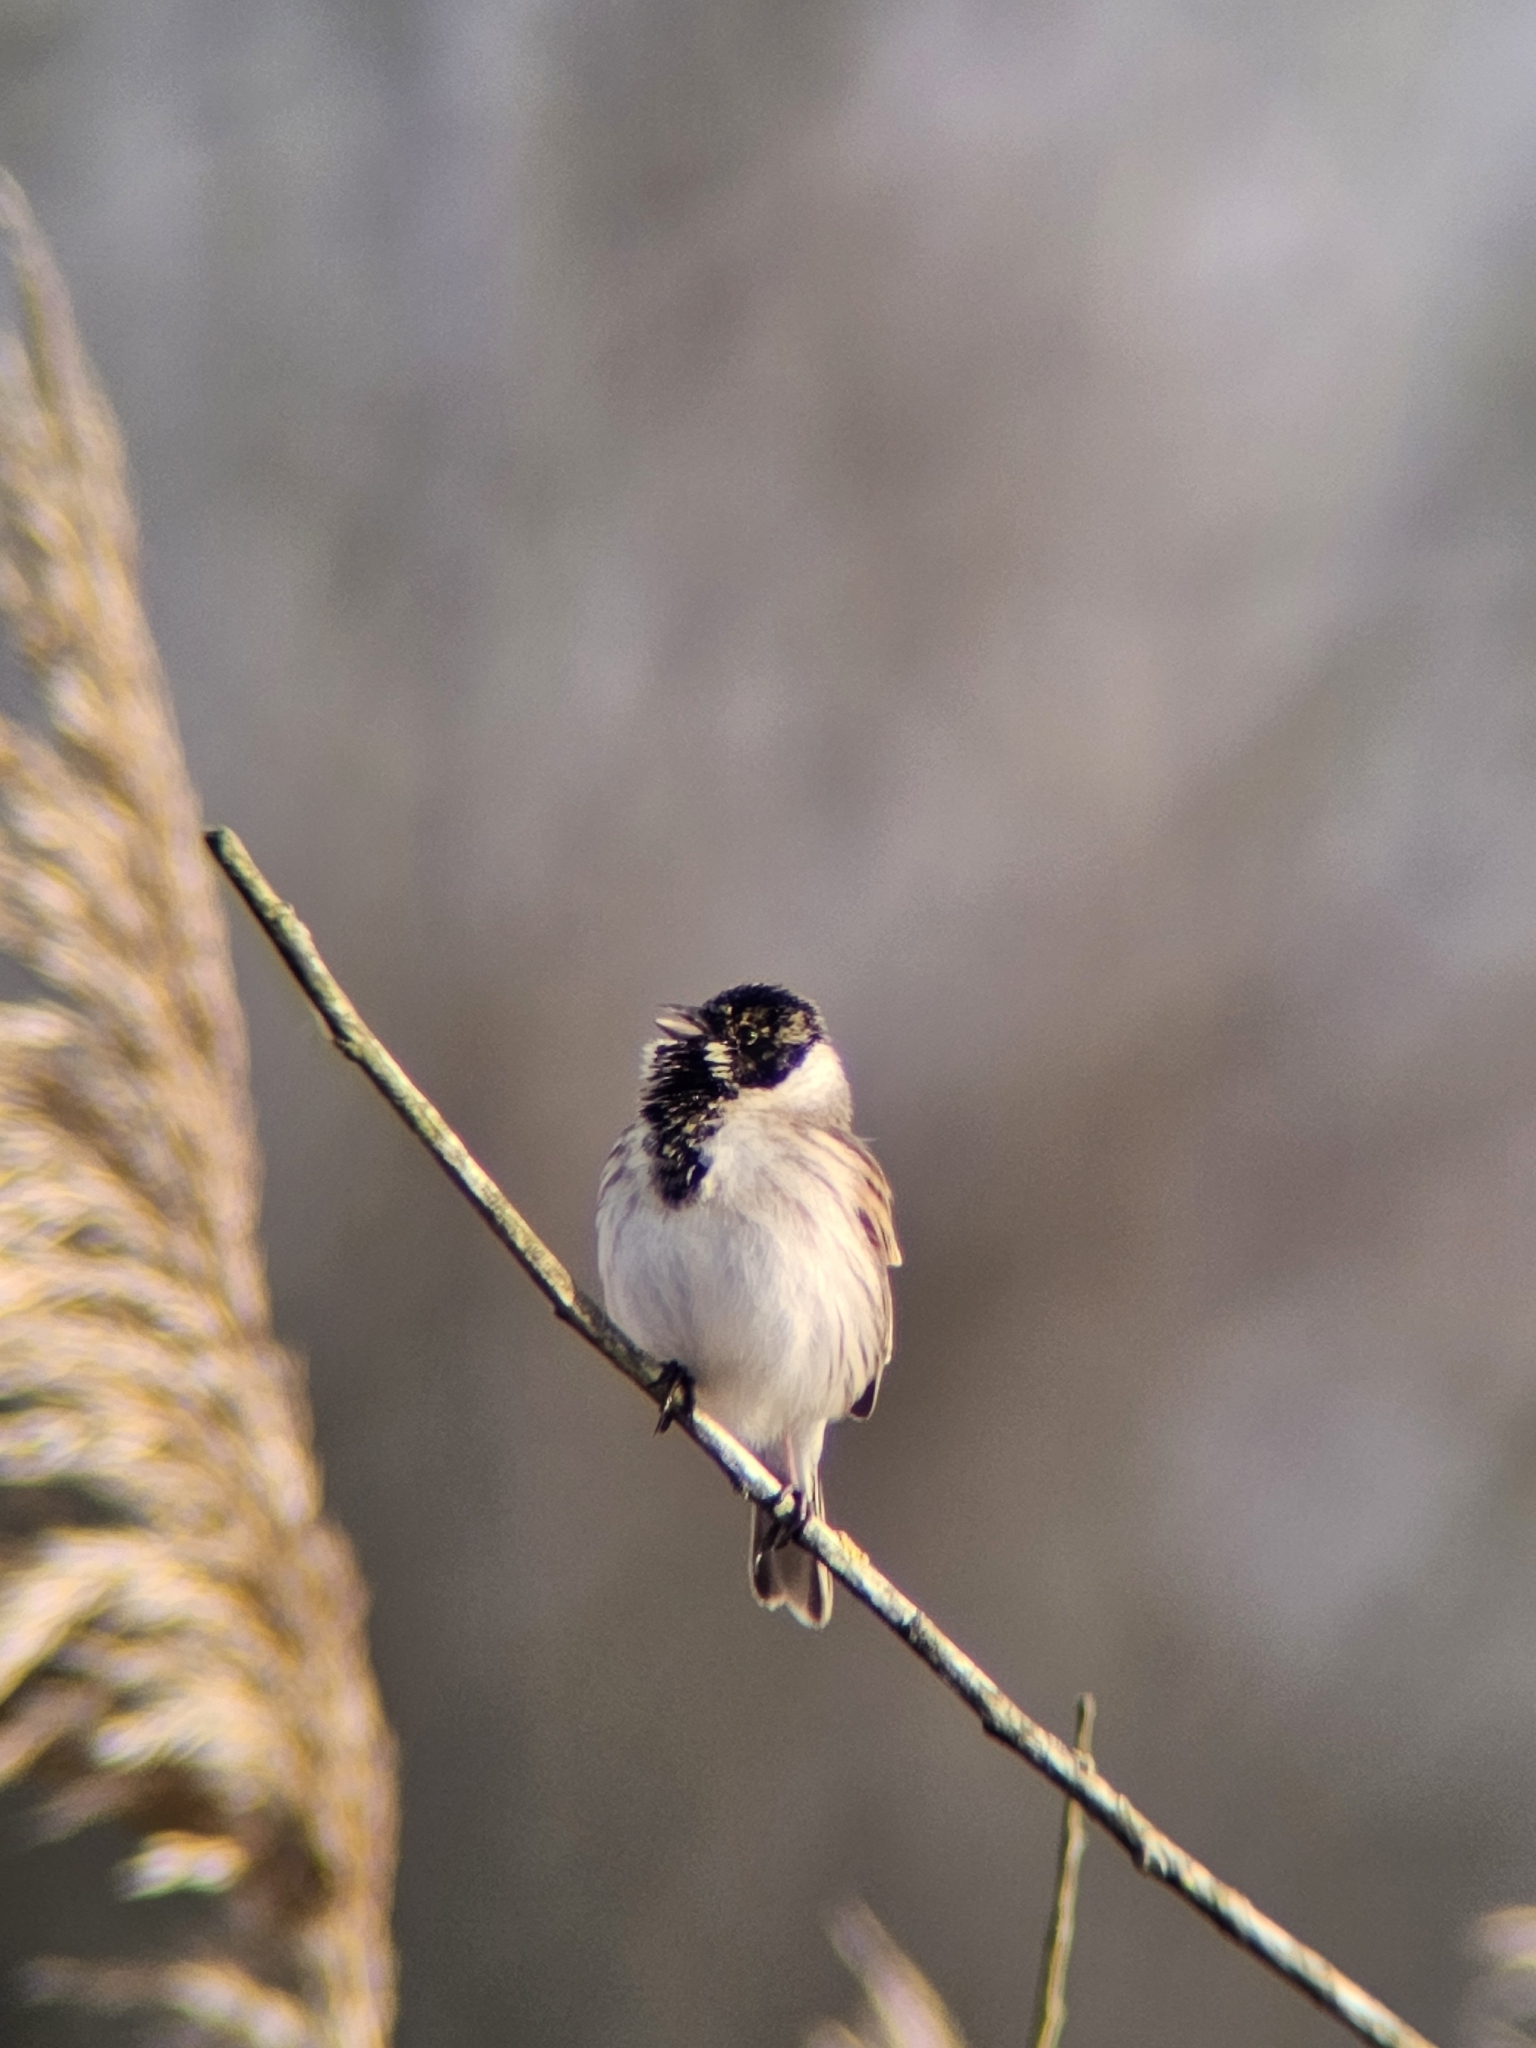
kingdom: Animalia
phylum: Chordata
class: Aves
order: Passeriformes
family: Emberizidae
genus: Emberiza
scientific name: Emberiza schoeniclus
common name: Reed bunting
